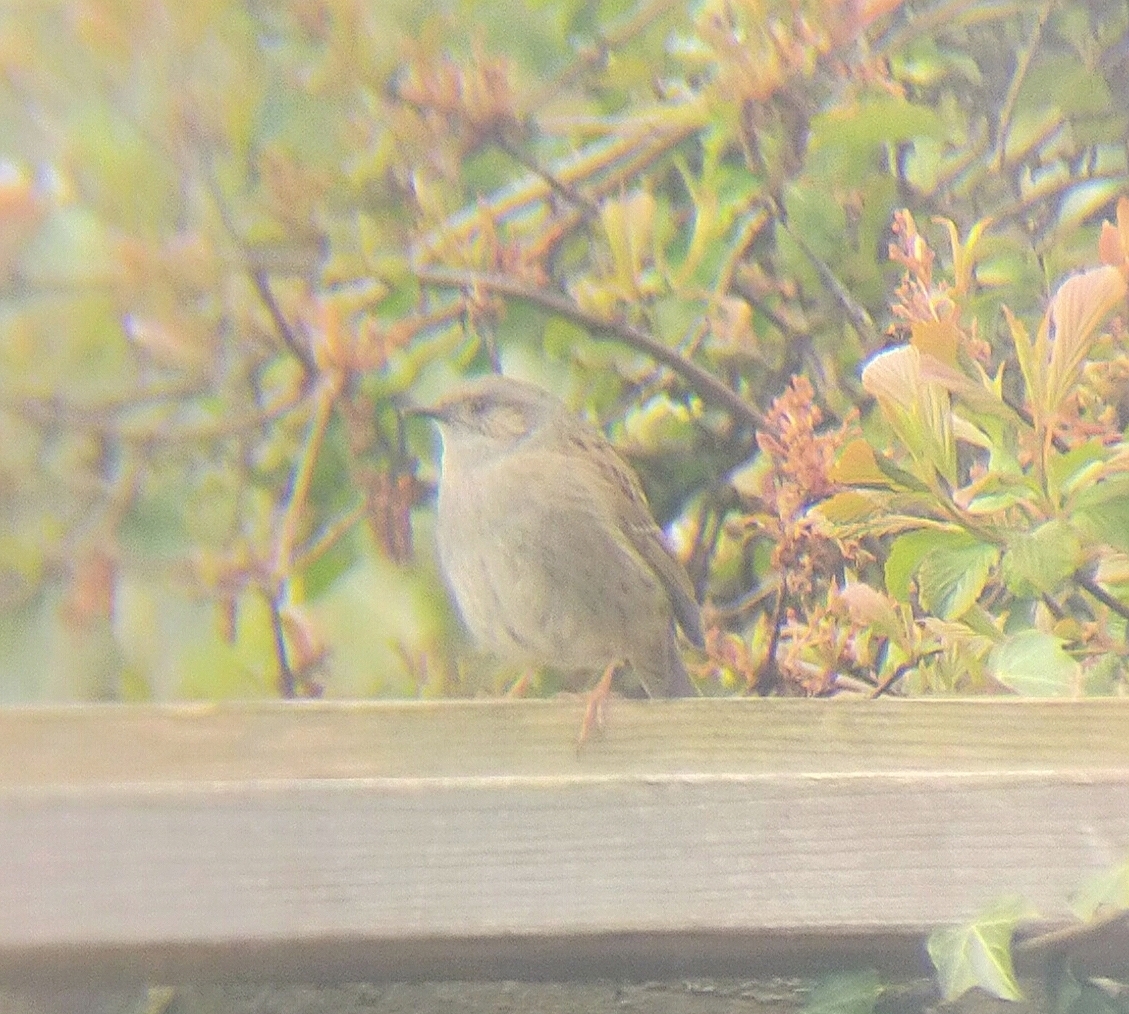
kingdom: Animalia
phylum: Chordata
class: Aves
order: Passeriformes
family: Prunellidae
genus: Prunella
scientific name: Prunella modularis
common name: Dunnock
